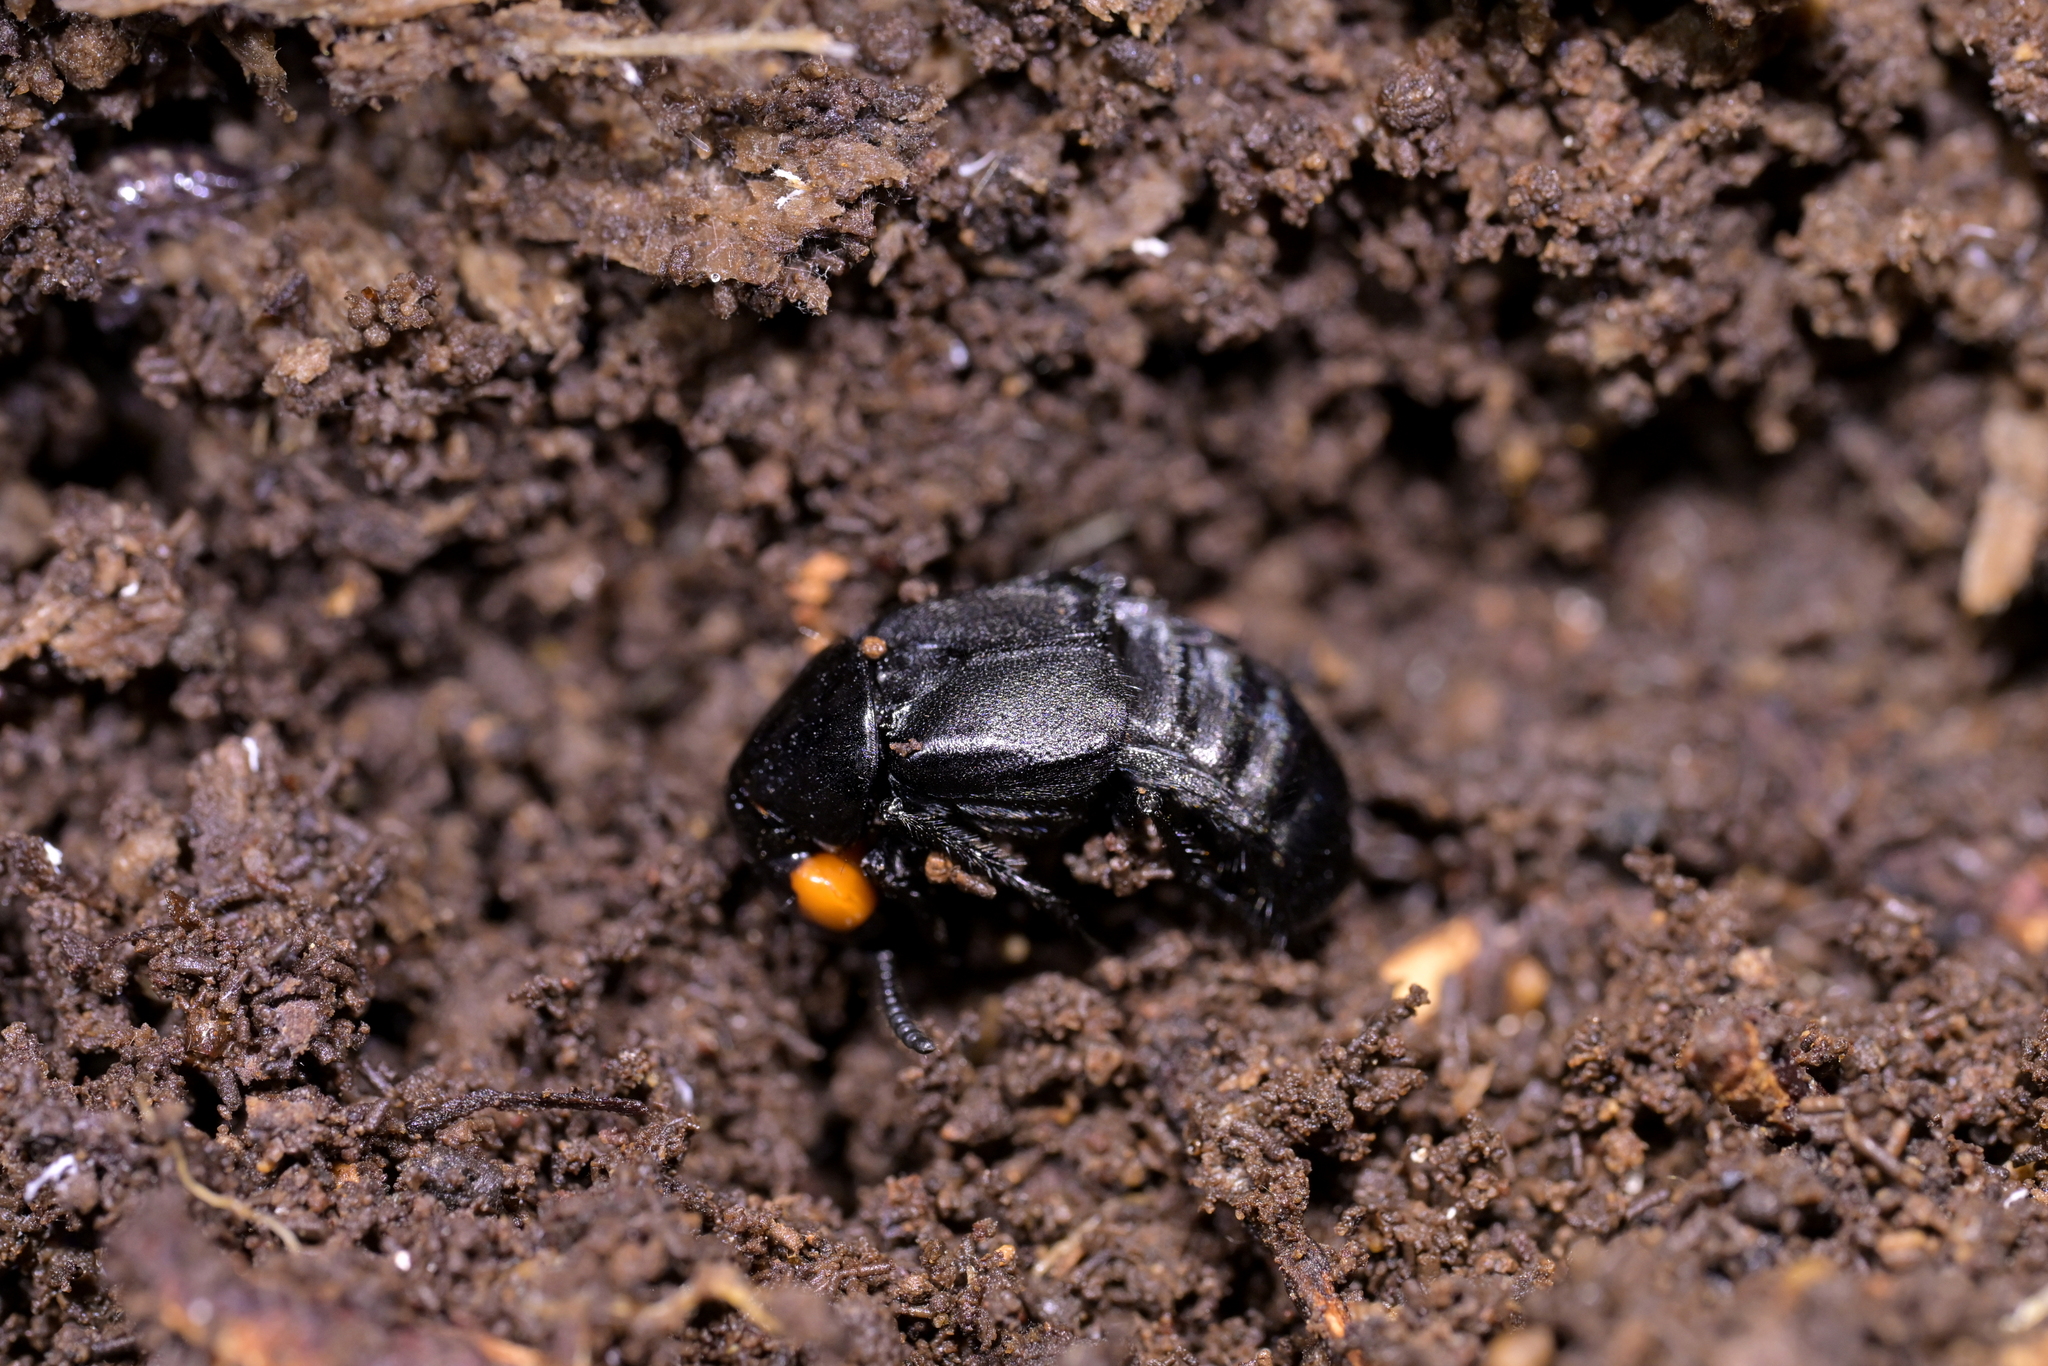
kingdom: Animalia
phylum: Arthropoda
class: Insecta
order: Coleoptera
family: Staphylinidae
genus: Creophilus
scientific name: Creophilus oculatus
